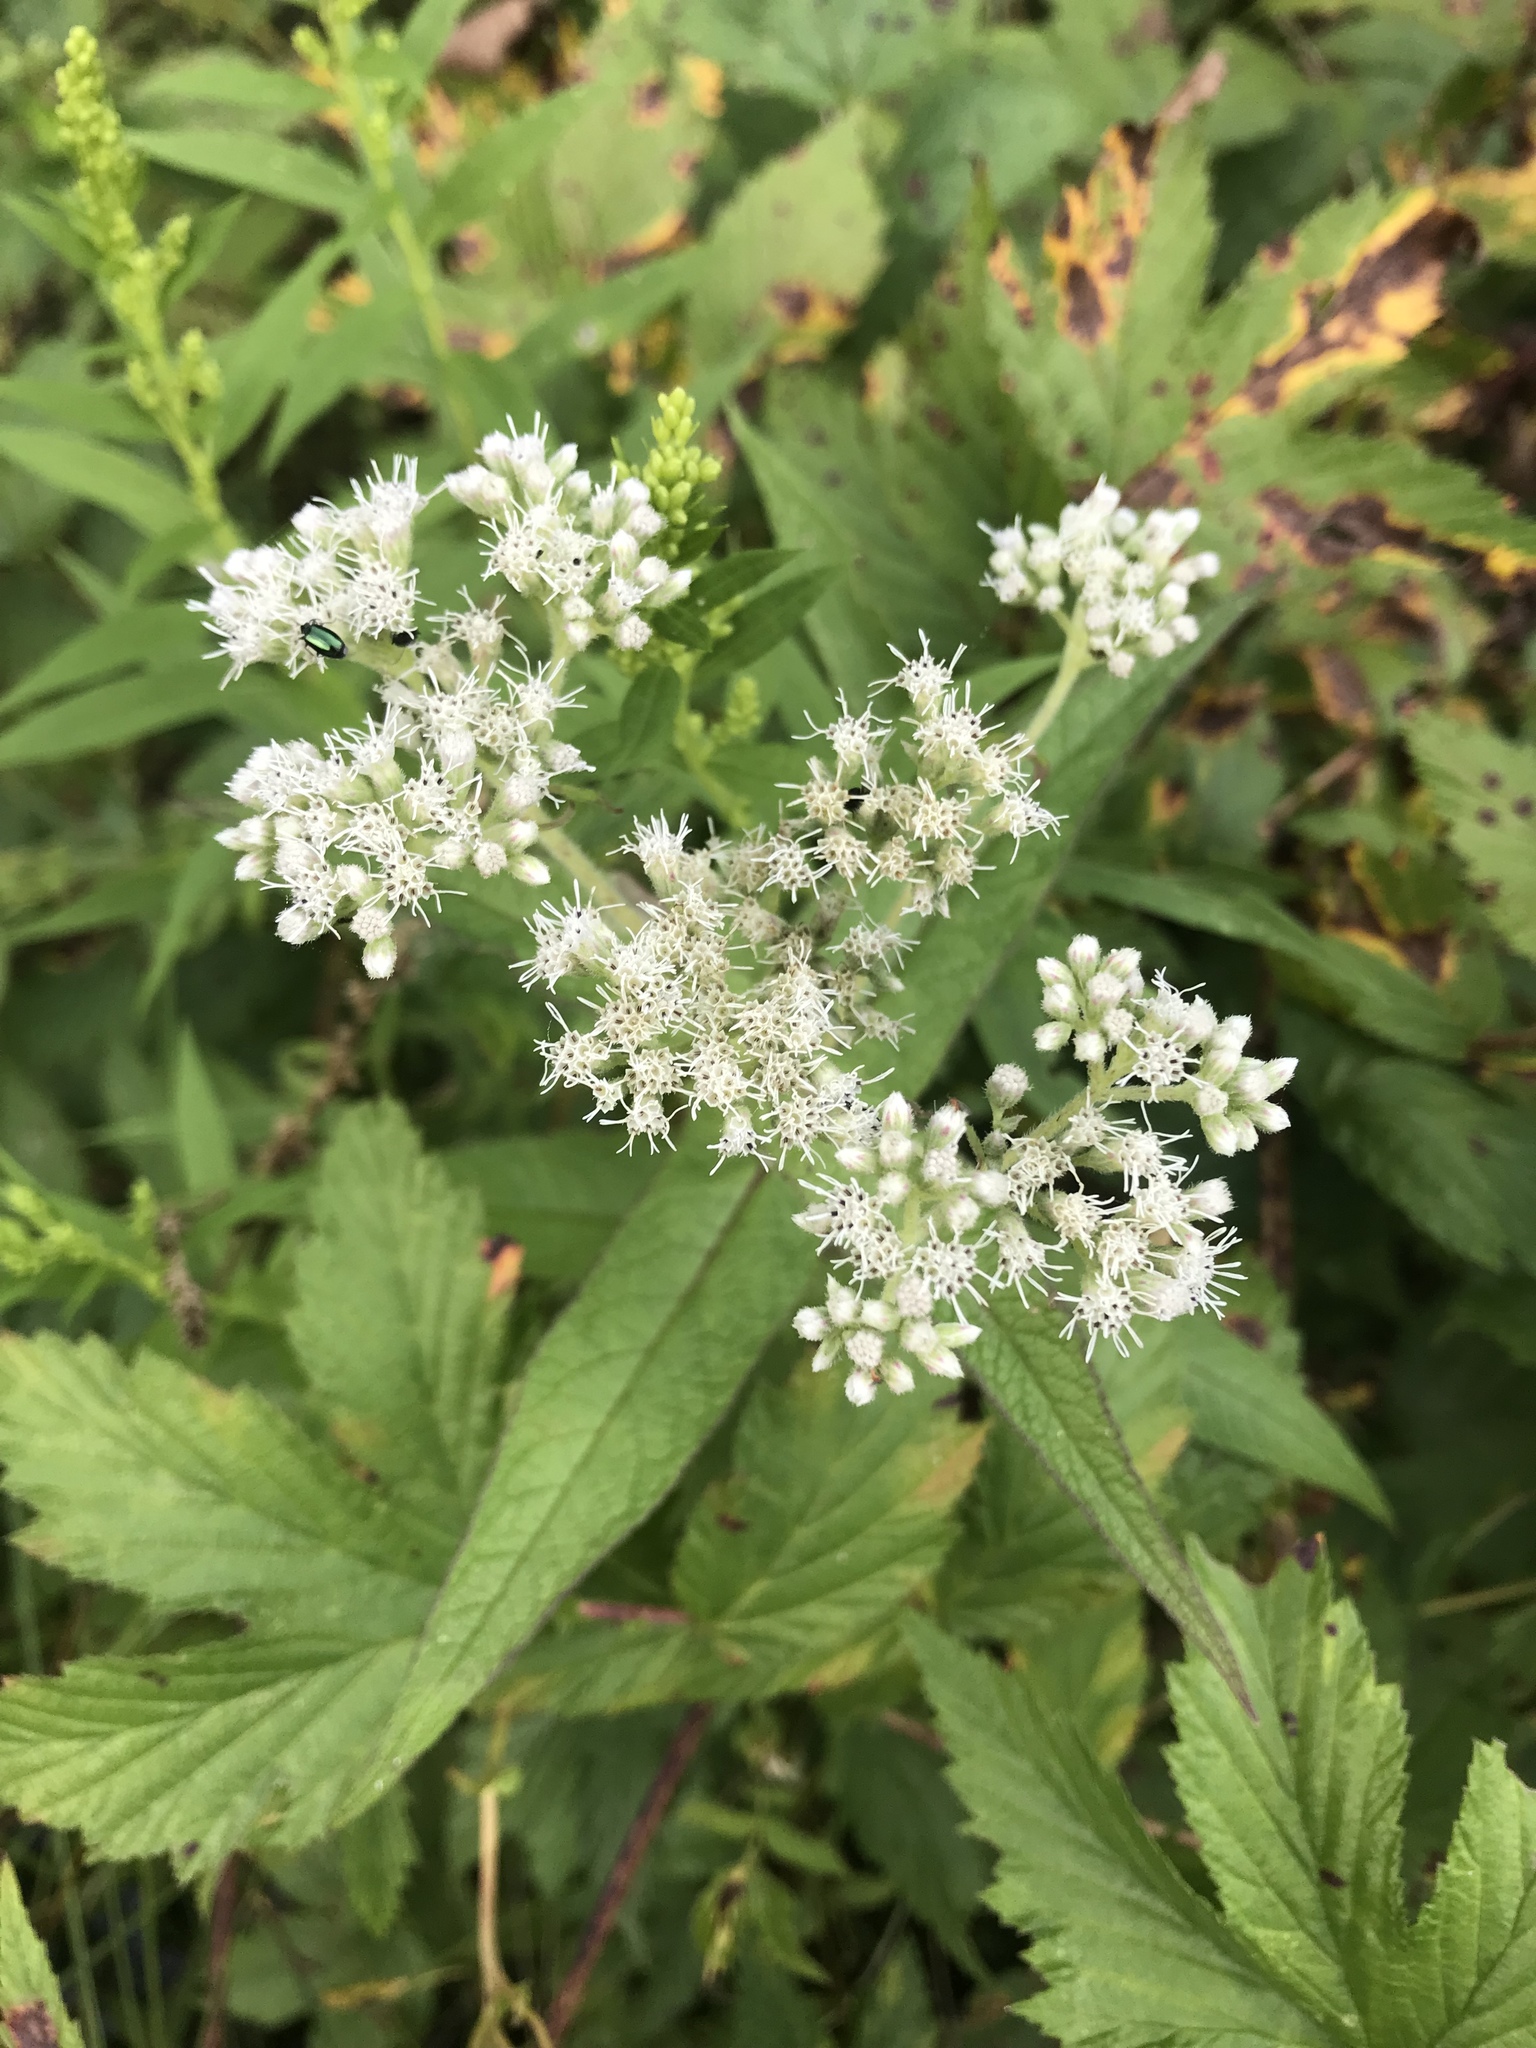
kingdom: Plantae
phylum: Tracheophyta
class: Magnoliopsida
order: Asterales
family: Asteraceae
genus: Eupatorium
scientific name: Eupatorium perfoliatum
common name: Boneset
